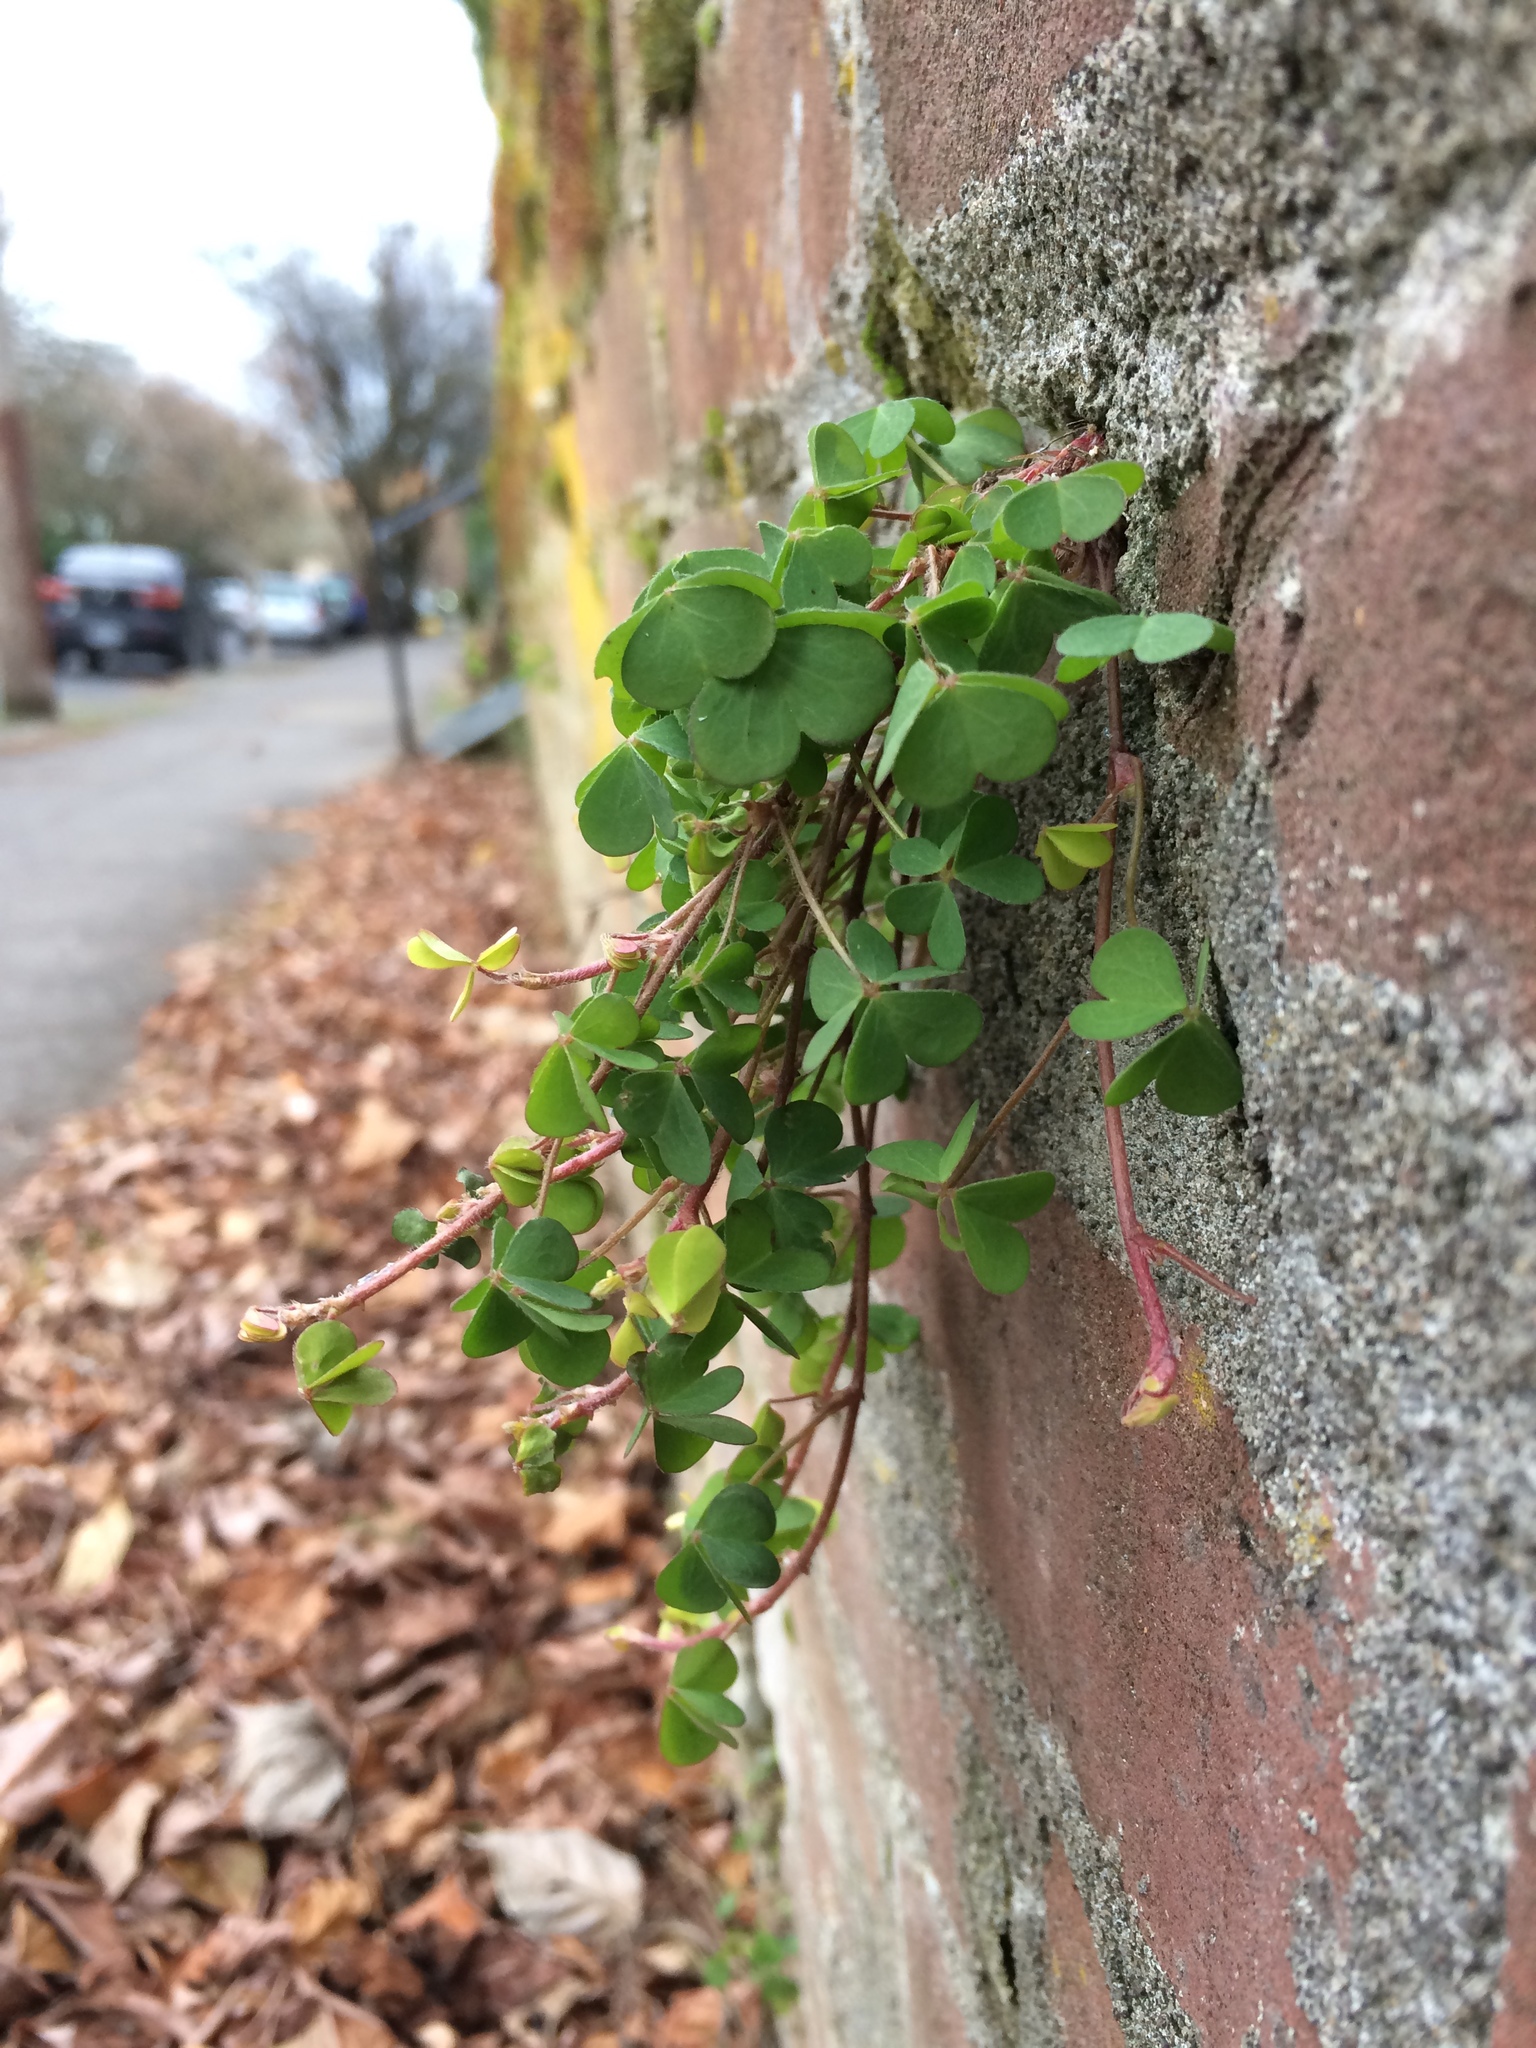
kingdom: Plantae
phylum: Tracheophyta
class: Magnoliopsida
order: Oxalidales
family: Oxalidaceae
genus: Oxalis
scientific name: Oxalis corniculata
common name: Procumbent yellow-sorrel
